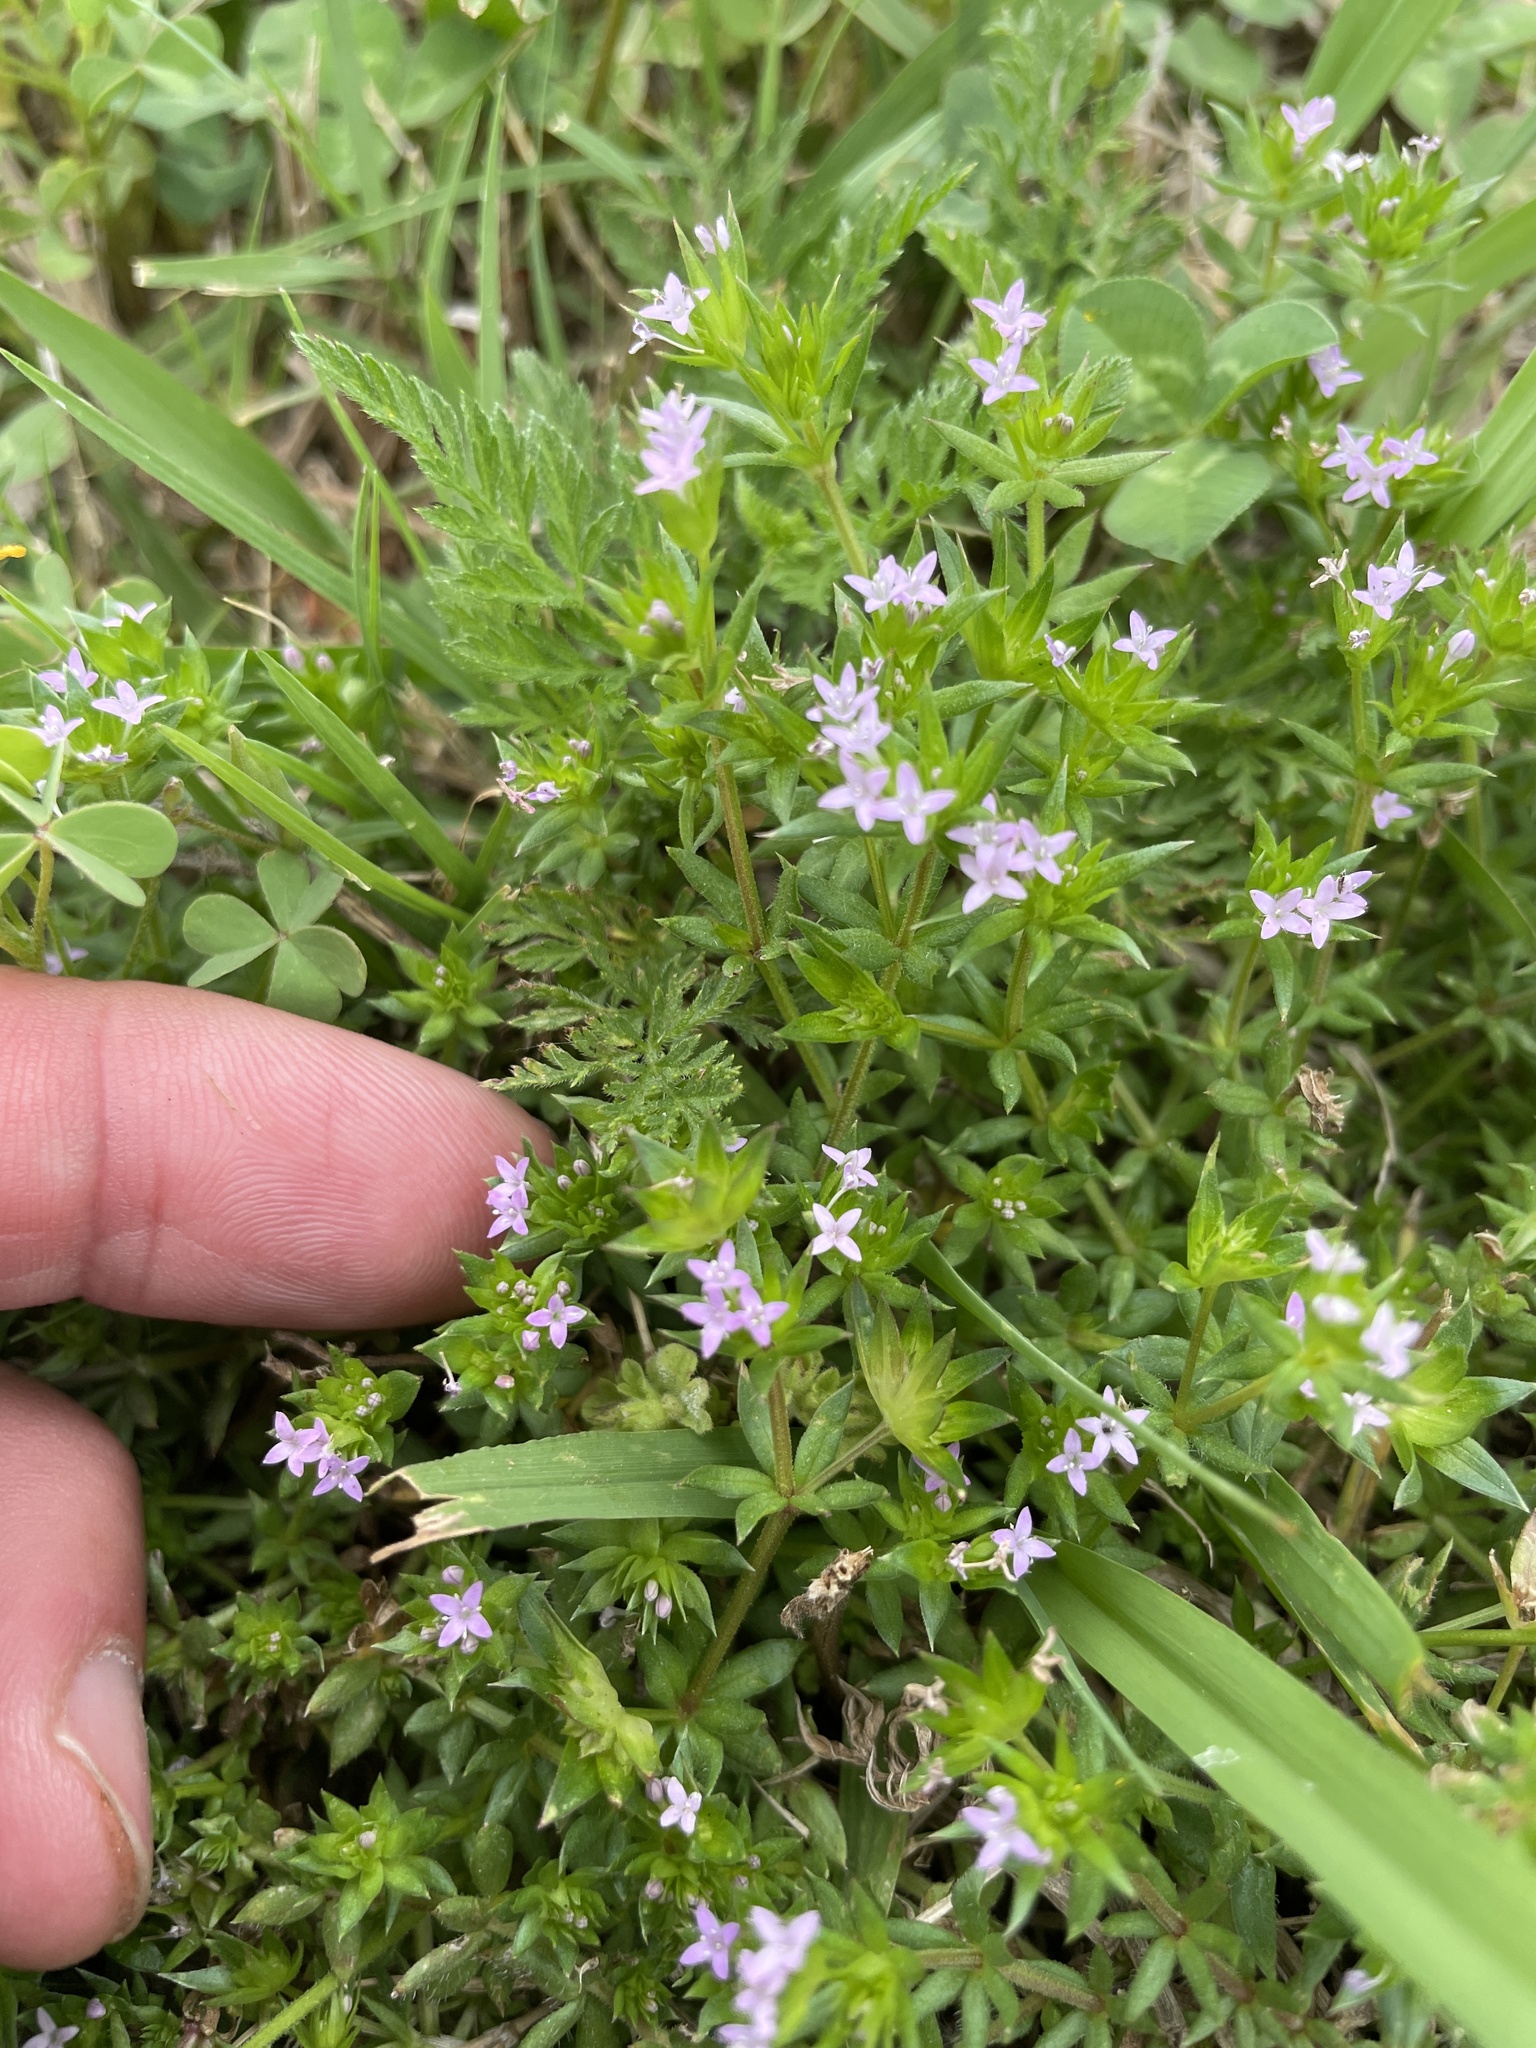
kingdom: Plantae
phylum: Tracheophyta
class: Magnoliopsida
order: Gentianales
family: Rubiaceae
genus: Sherardia
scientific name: Sherardia arvensis
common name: Field madder
